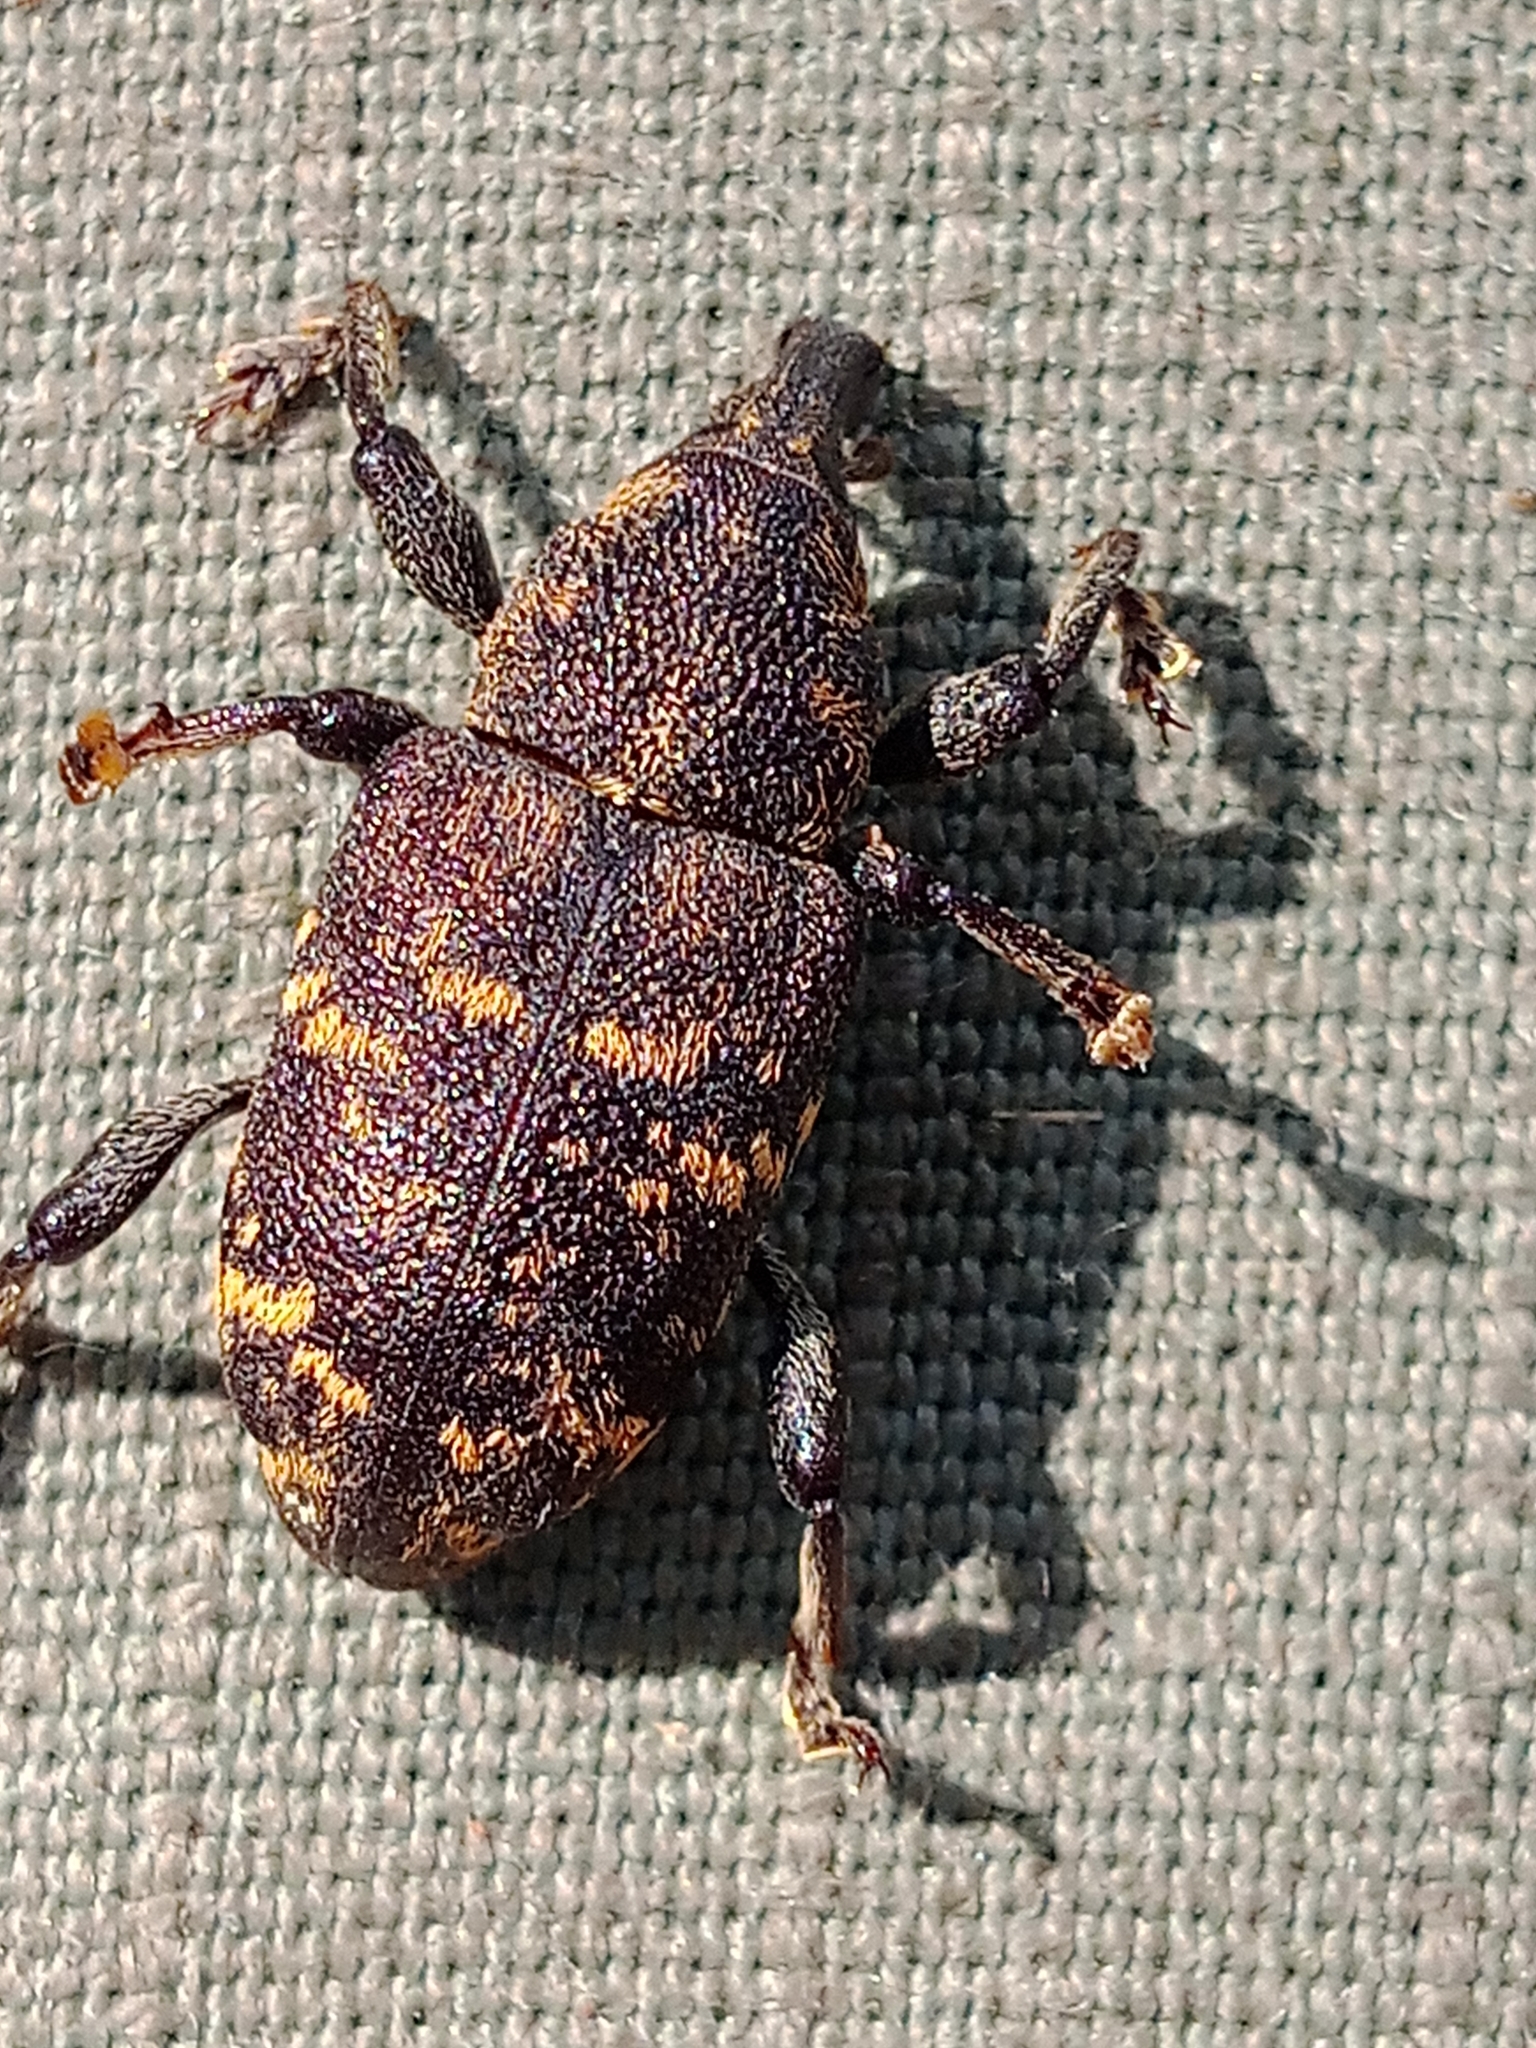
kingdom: Animalia
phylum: Arthropoda
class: Insecta
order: Coleoptera
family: Curculionidae
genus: Hylobius
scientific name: Hylobius abietis
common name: Large pine weevil
